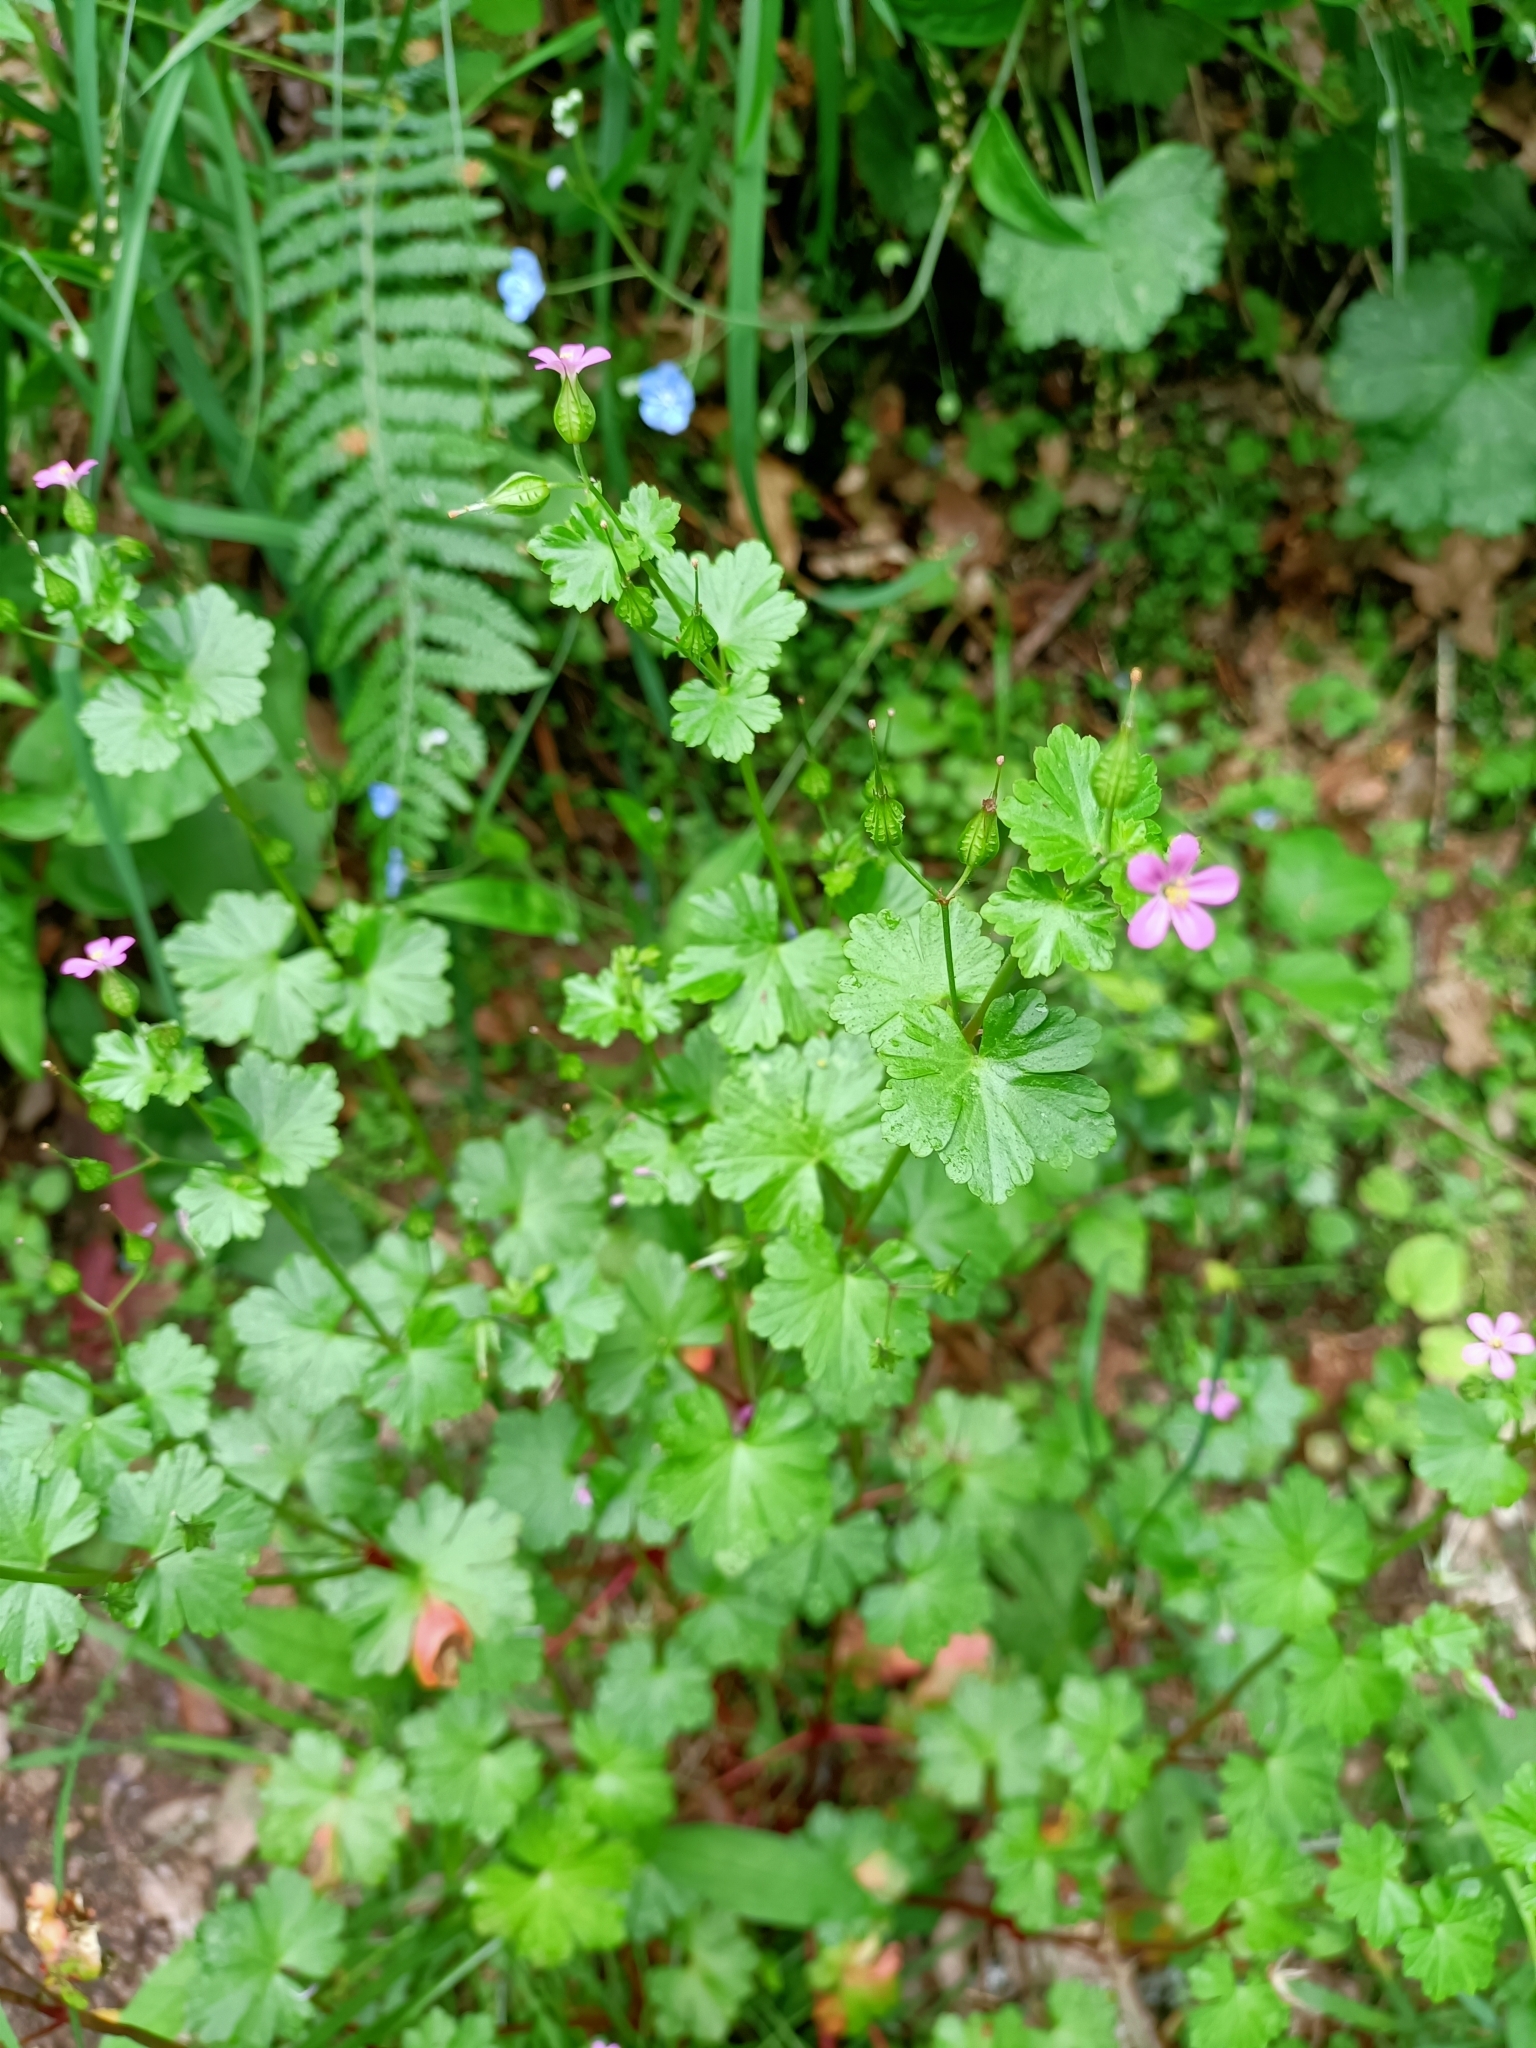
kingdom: Plantae
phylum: Tracheophyta
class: Magnoliopsida
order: Geraniales
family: Geraniaceae
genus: Geranium
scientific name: Geranium lucidum
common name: Shining crane's-bill
